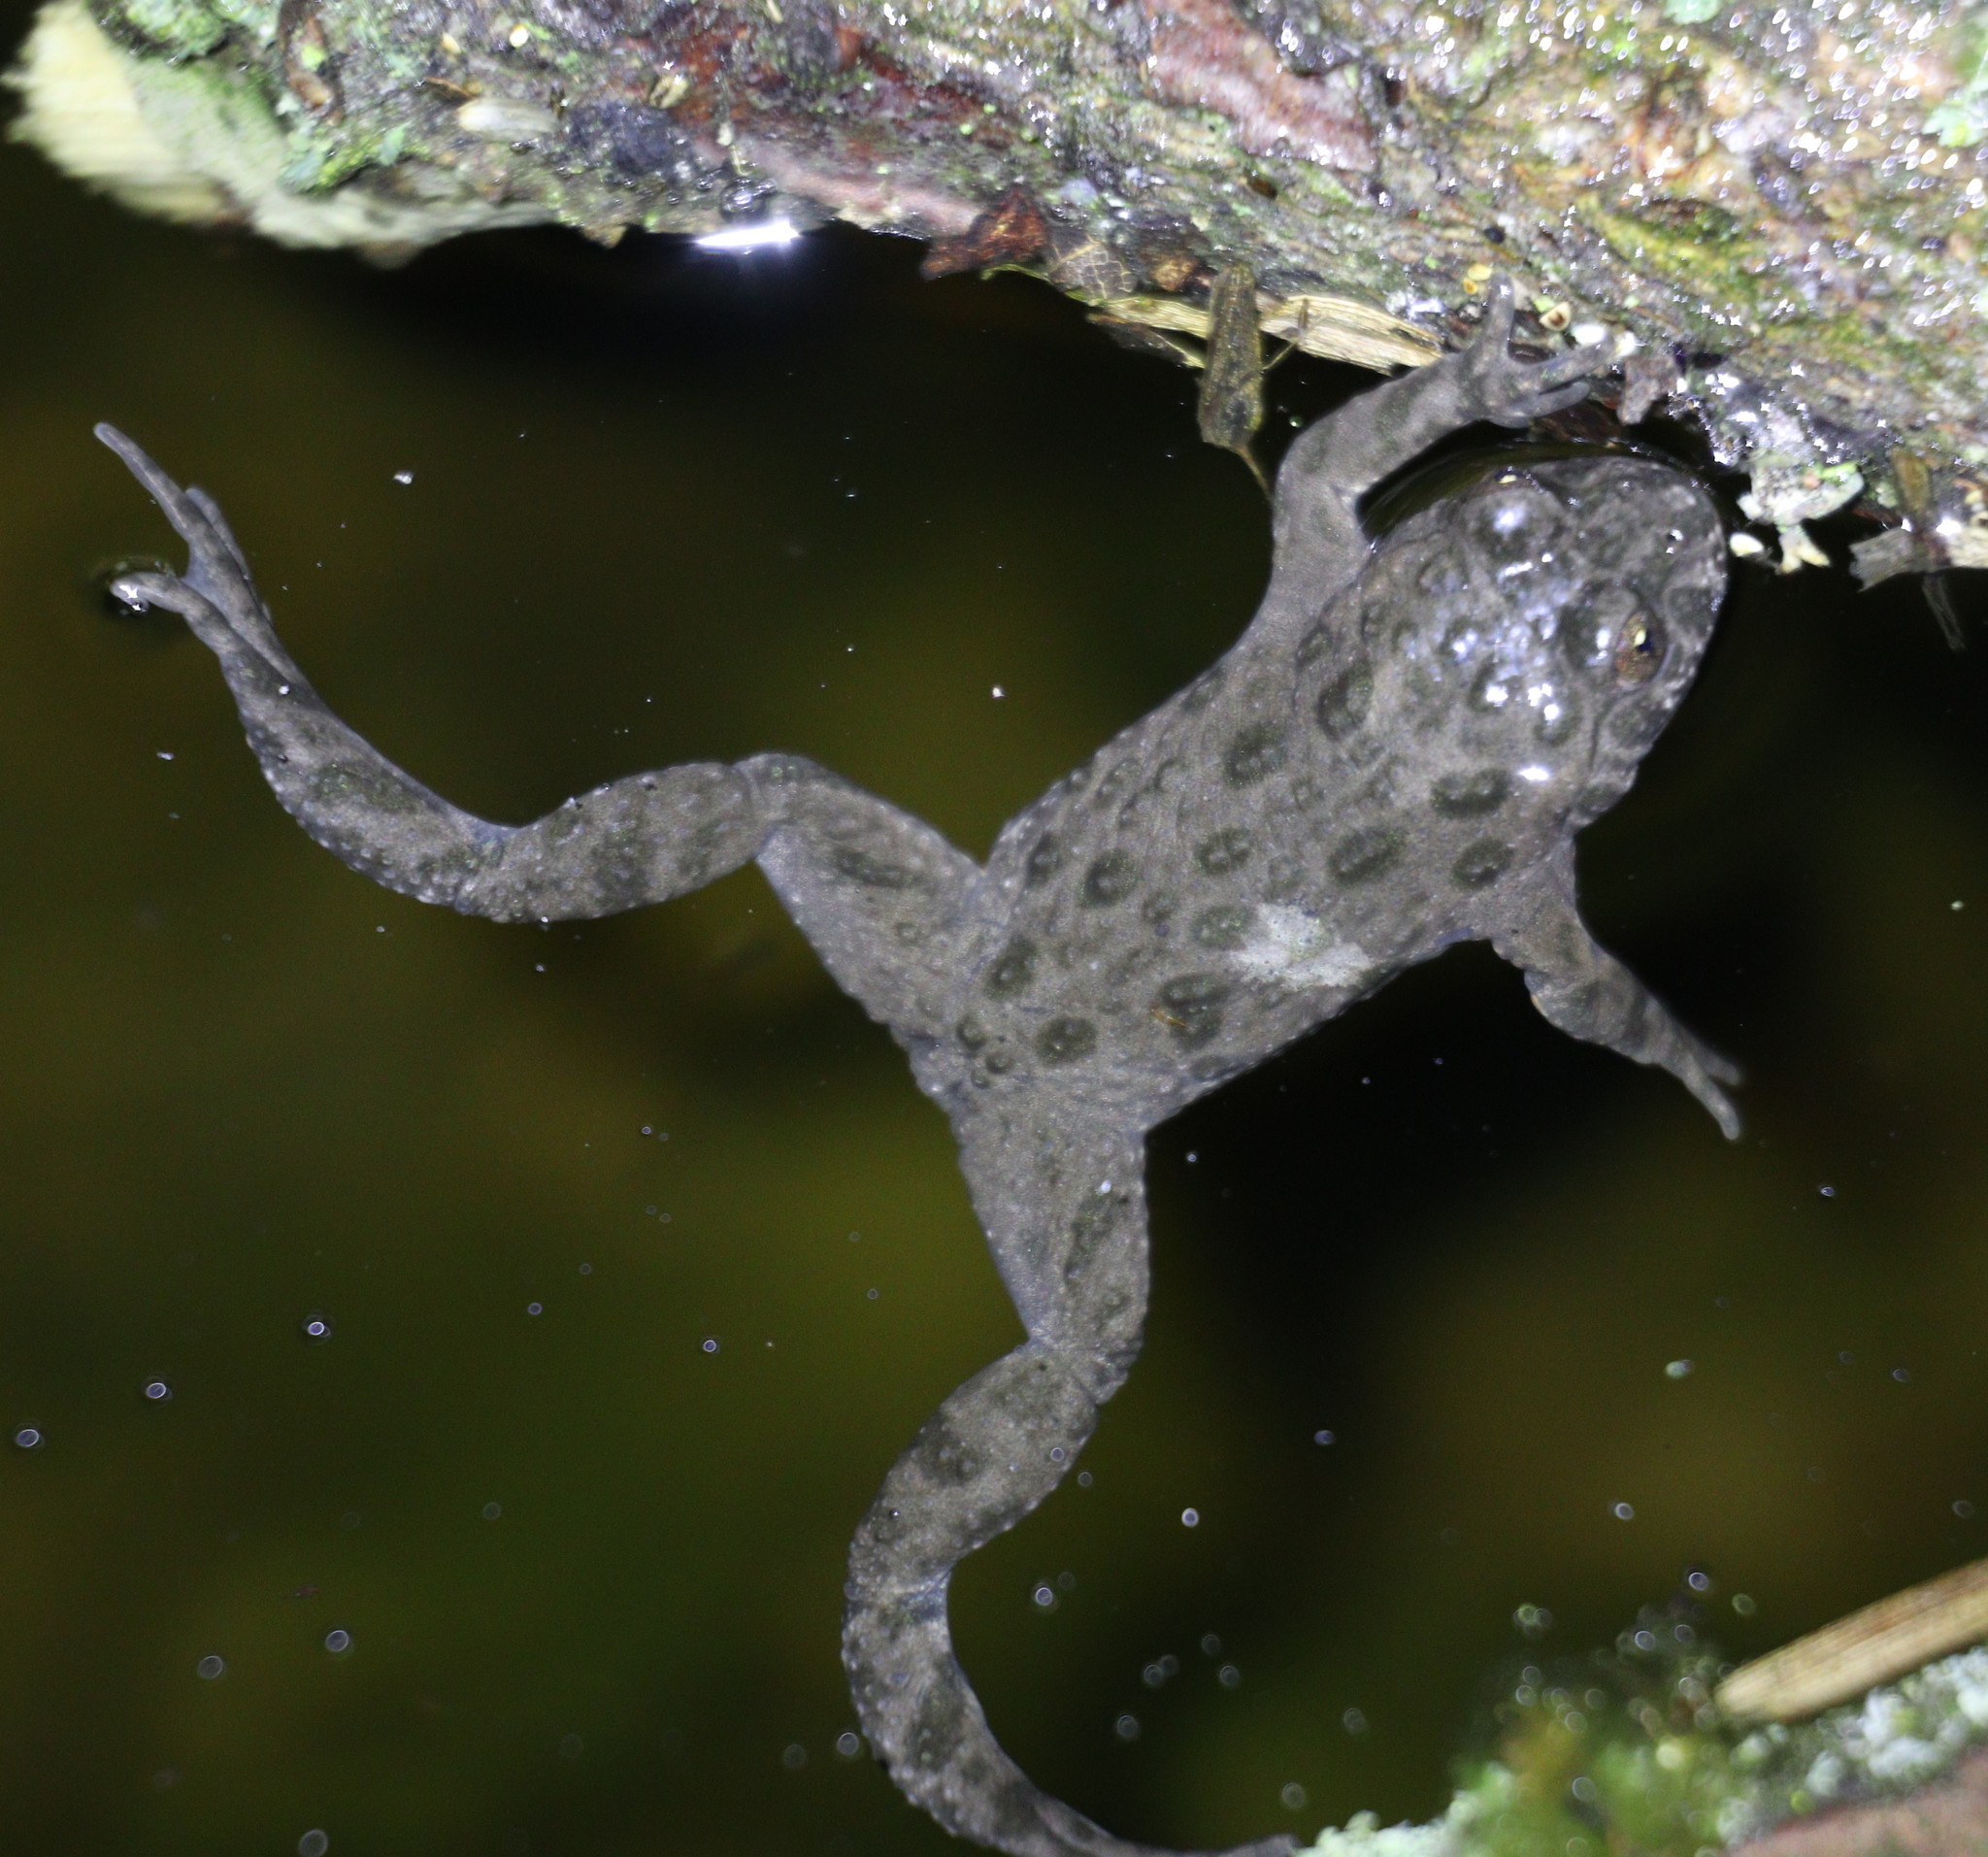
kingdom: Animalia
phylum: Chordata
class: Amphibia
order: Anura
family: Bombinatoridae
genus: Bombina
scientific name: Bombina bombina
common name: Fire-bellied toad
